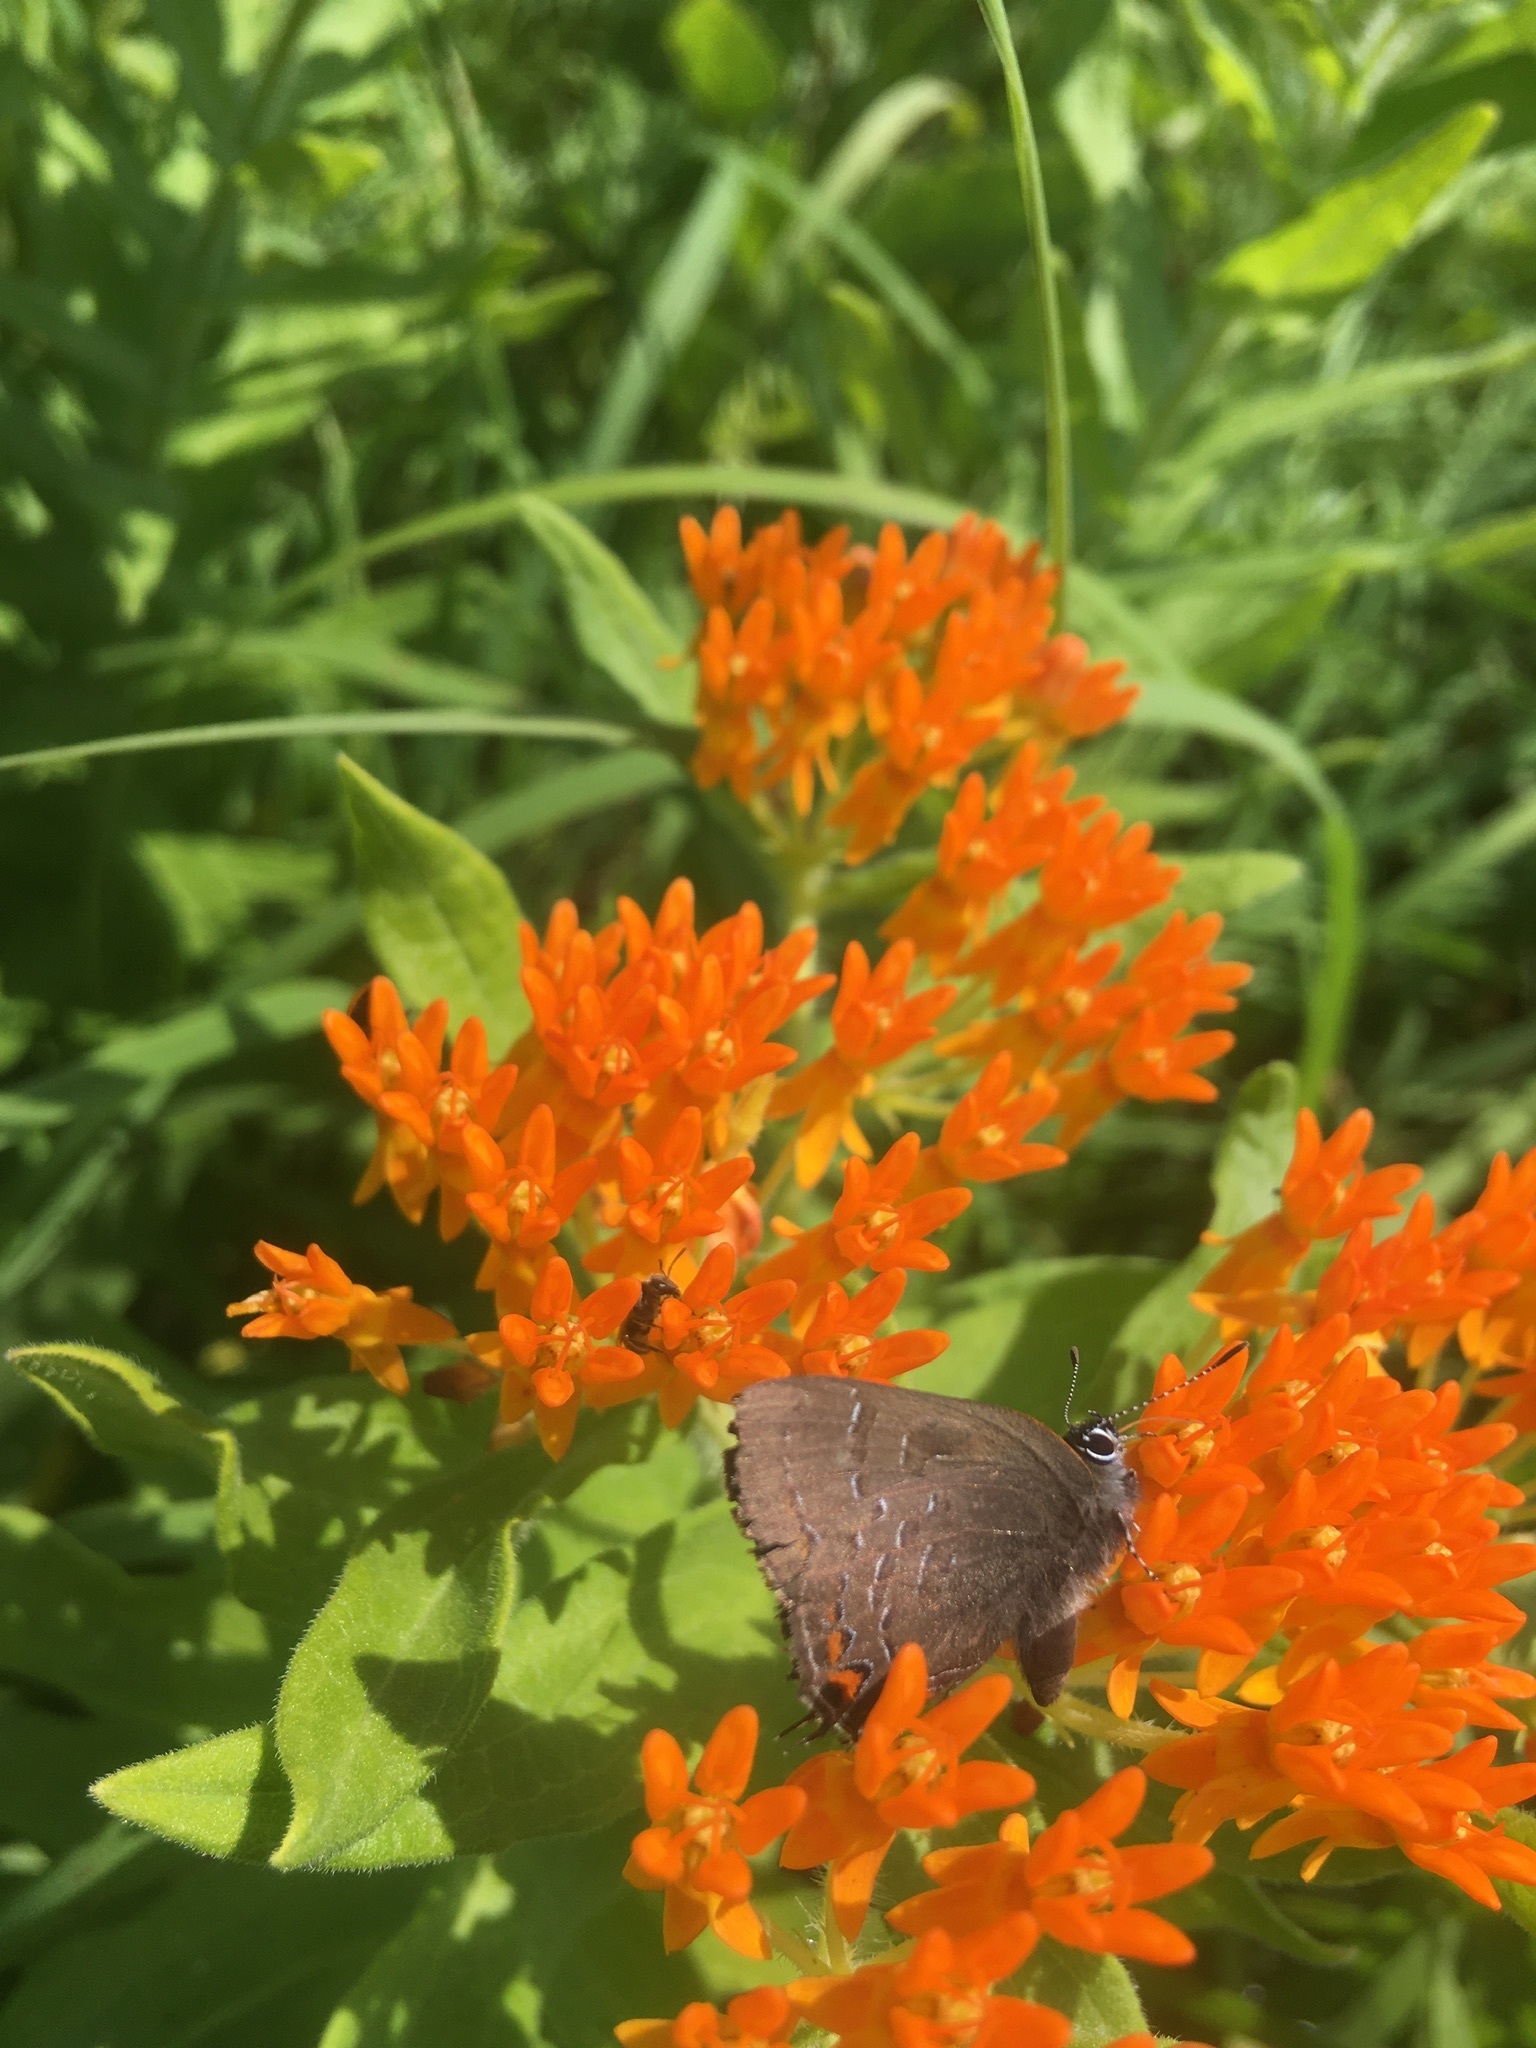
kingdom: Animalia
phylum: Arthropoda
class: Insecta
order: Lepidoptera
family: Lycaenidae
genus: Satyrium
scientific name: Satyrium calanus
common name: Banded hairstreak
